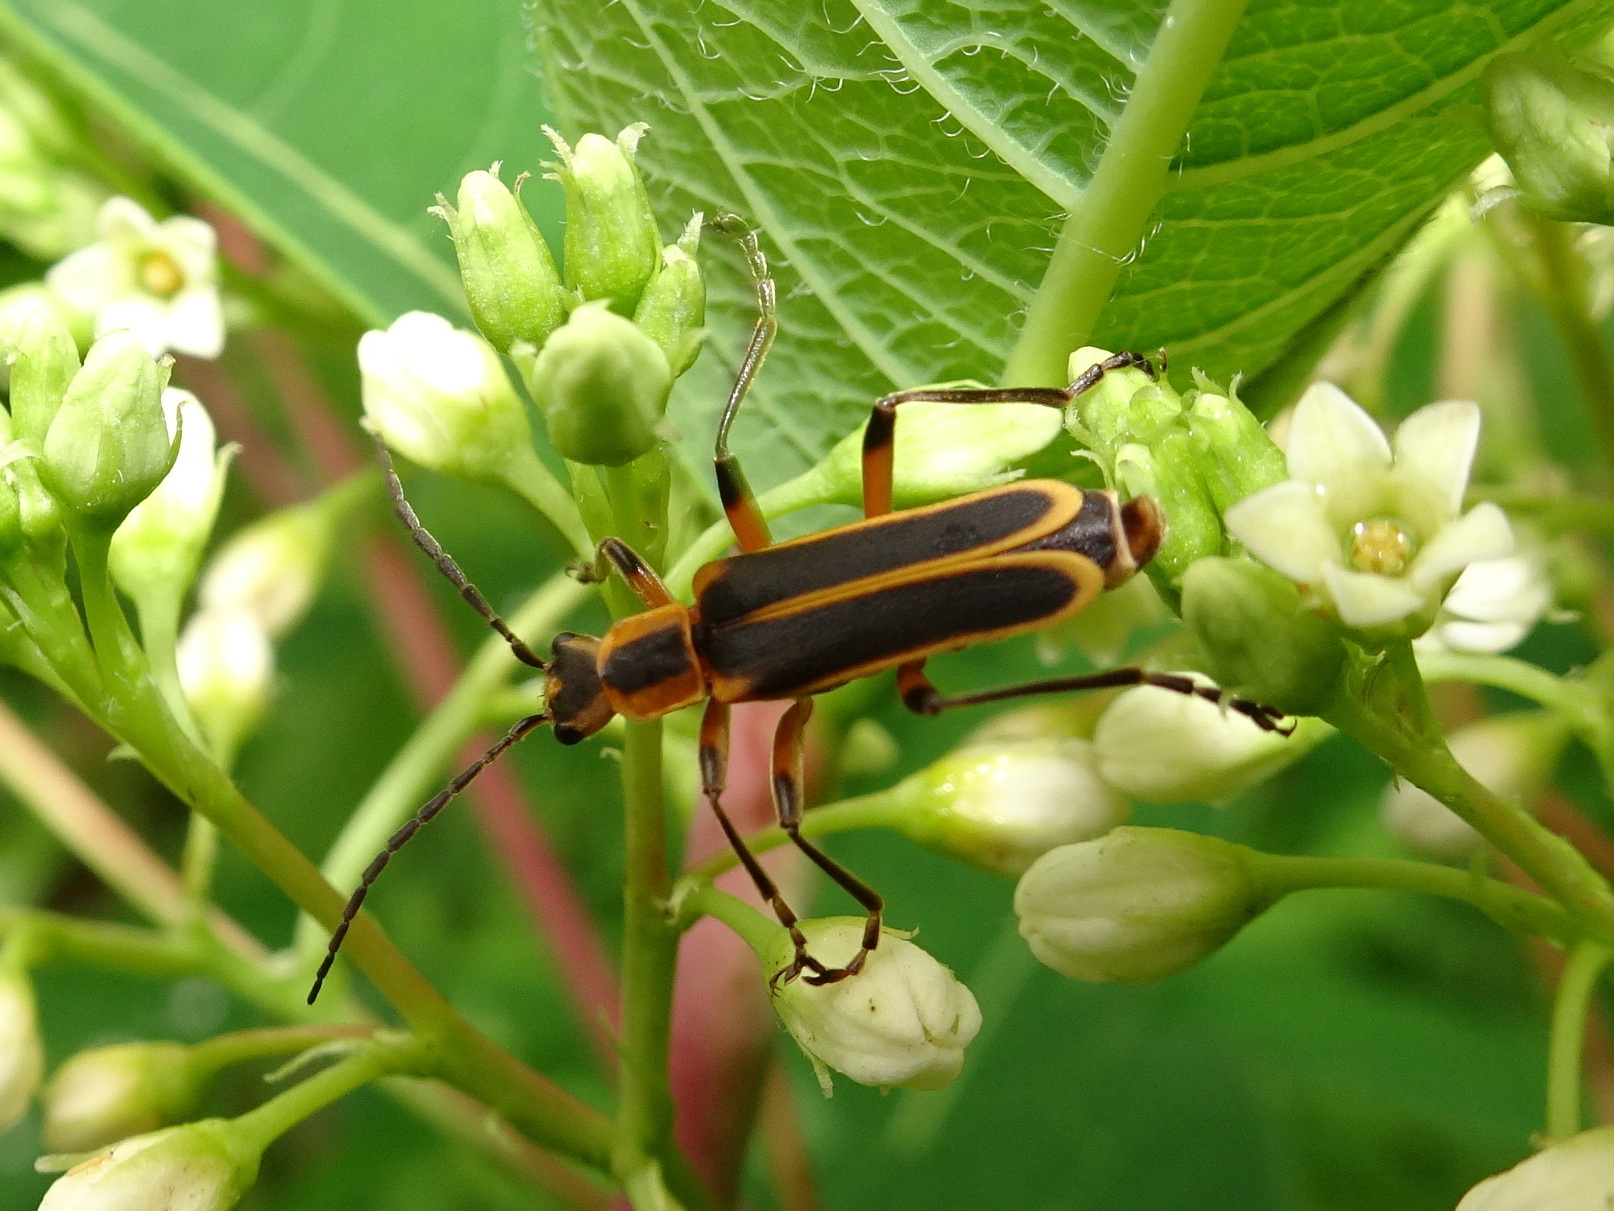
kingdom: Animalia
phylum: Arthropoda
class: Insecta
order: Coleoptera
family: Cantharidae
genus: Chauliognathus
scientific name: Chauliognathus marginatus
